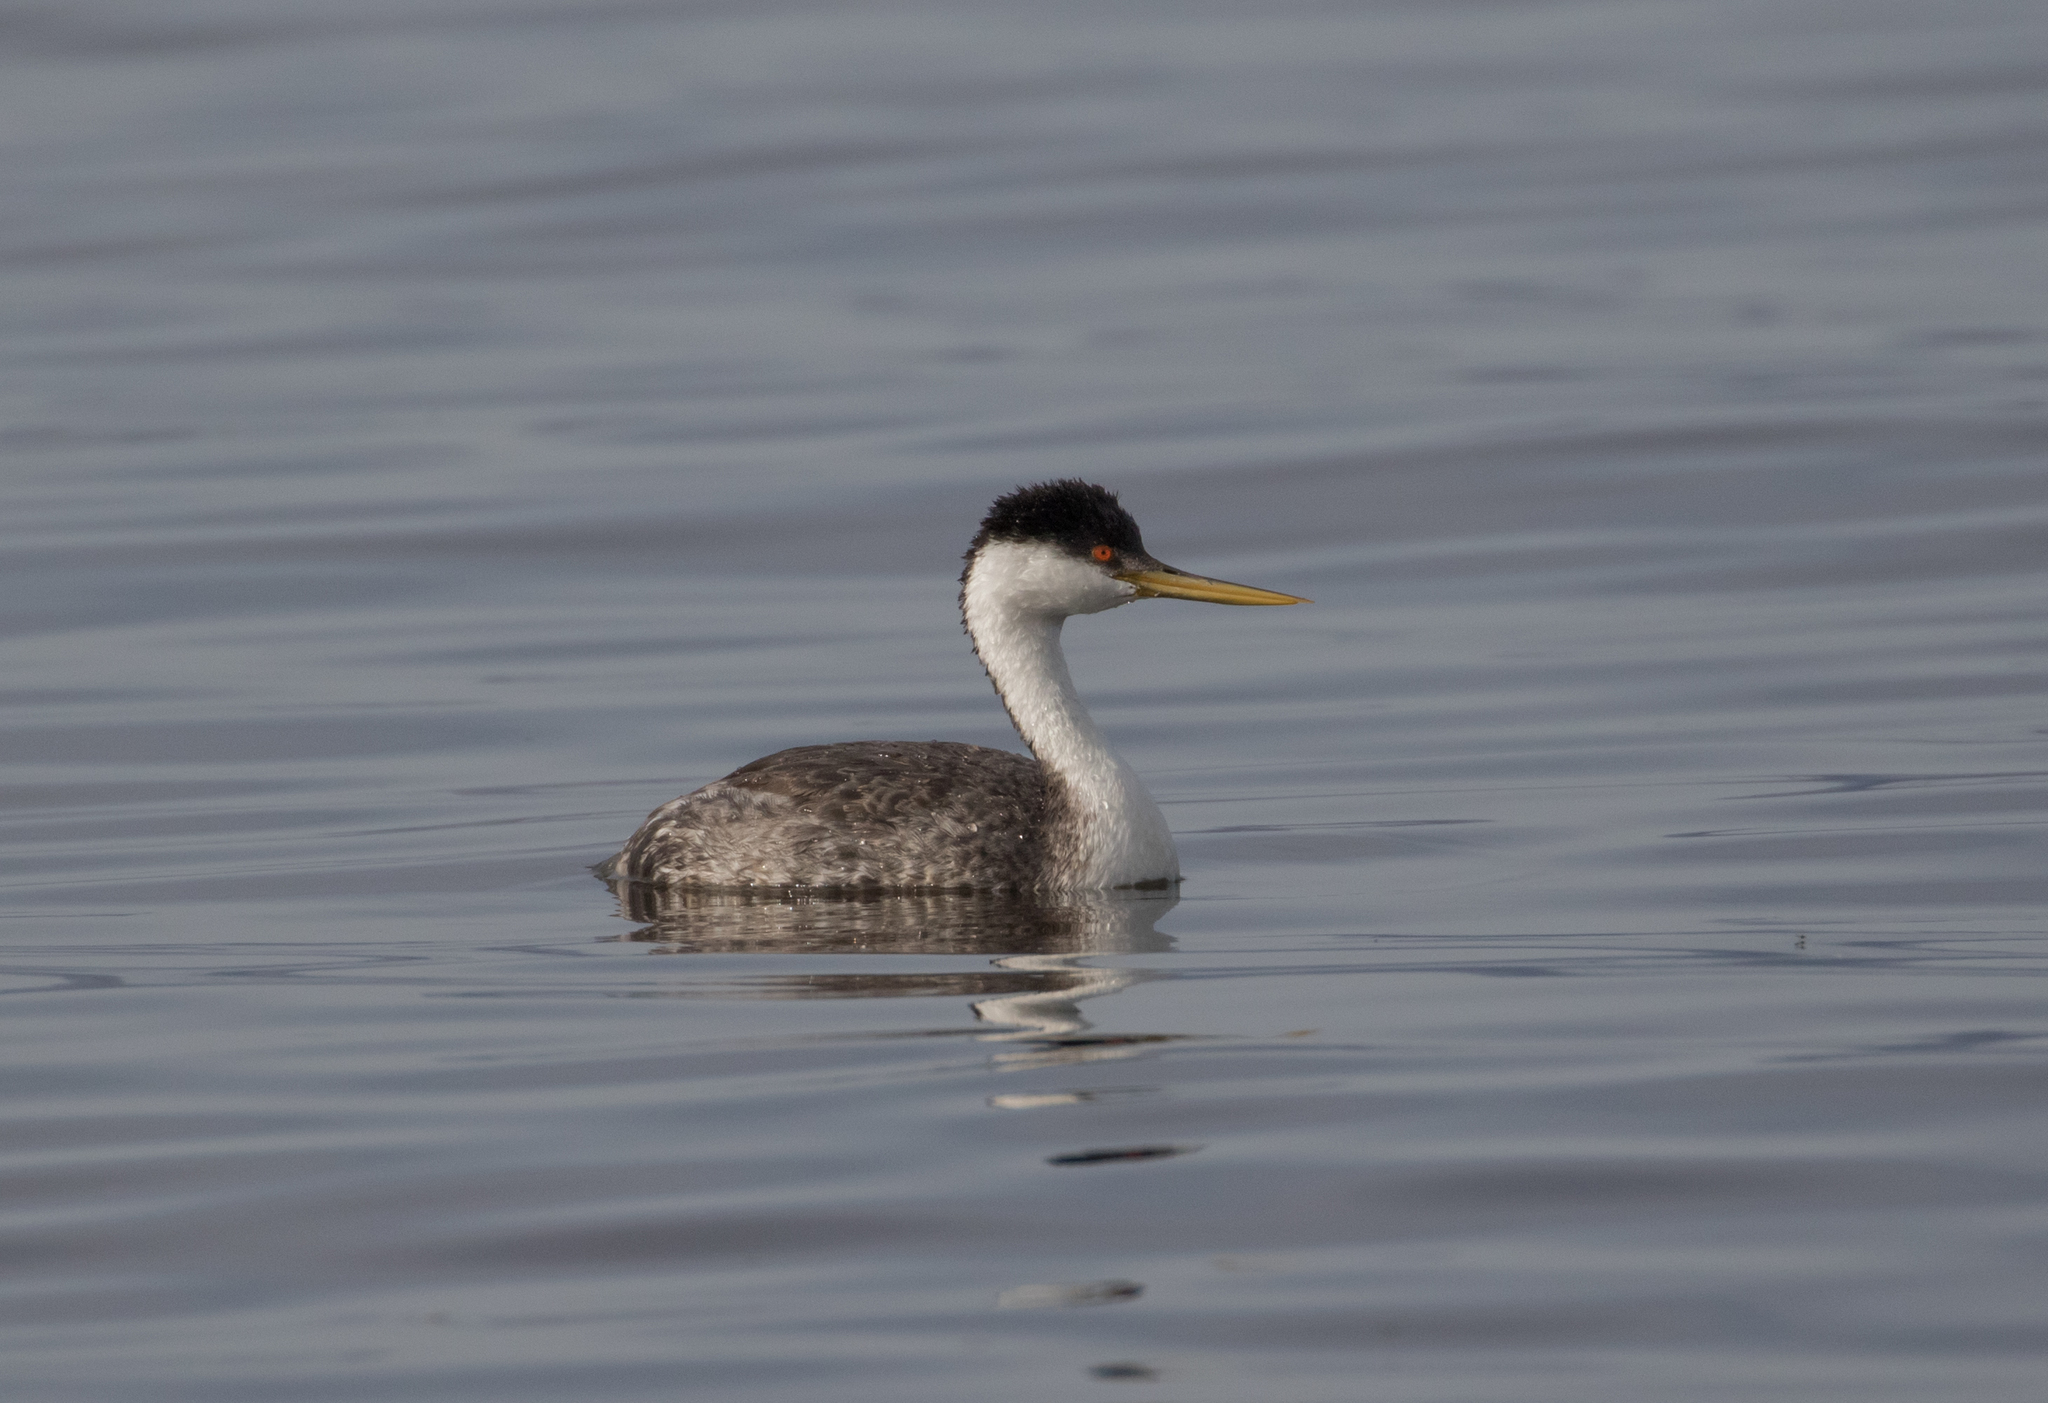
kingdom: Animalia
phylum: Chordata
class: Aves
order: Podicipediformes
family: Podicipedidae
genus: Aechmophorus
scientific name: Aechmophorus occidentalis
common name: Western grebe
